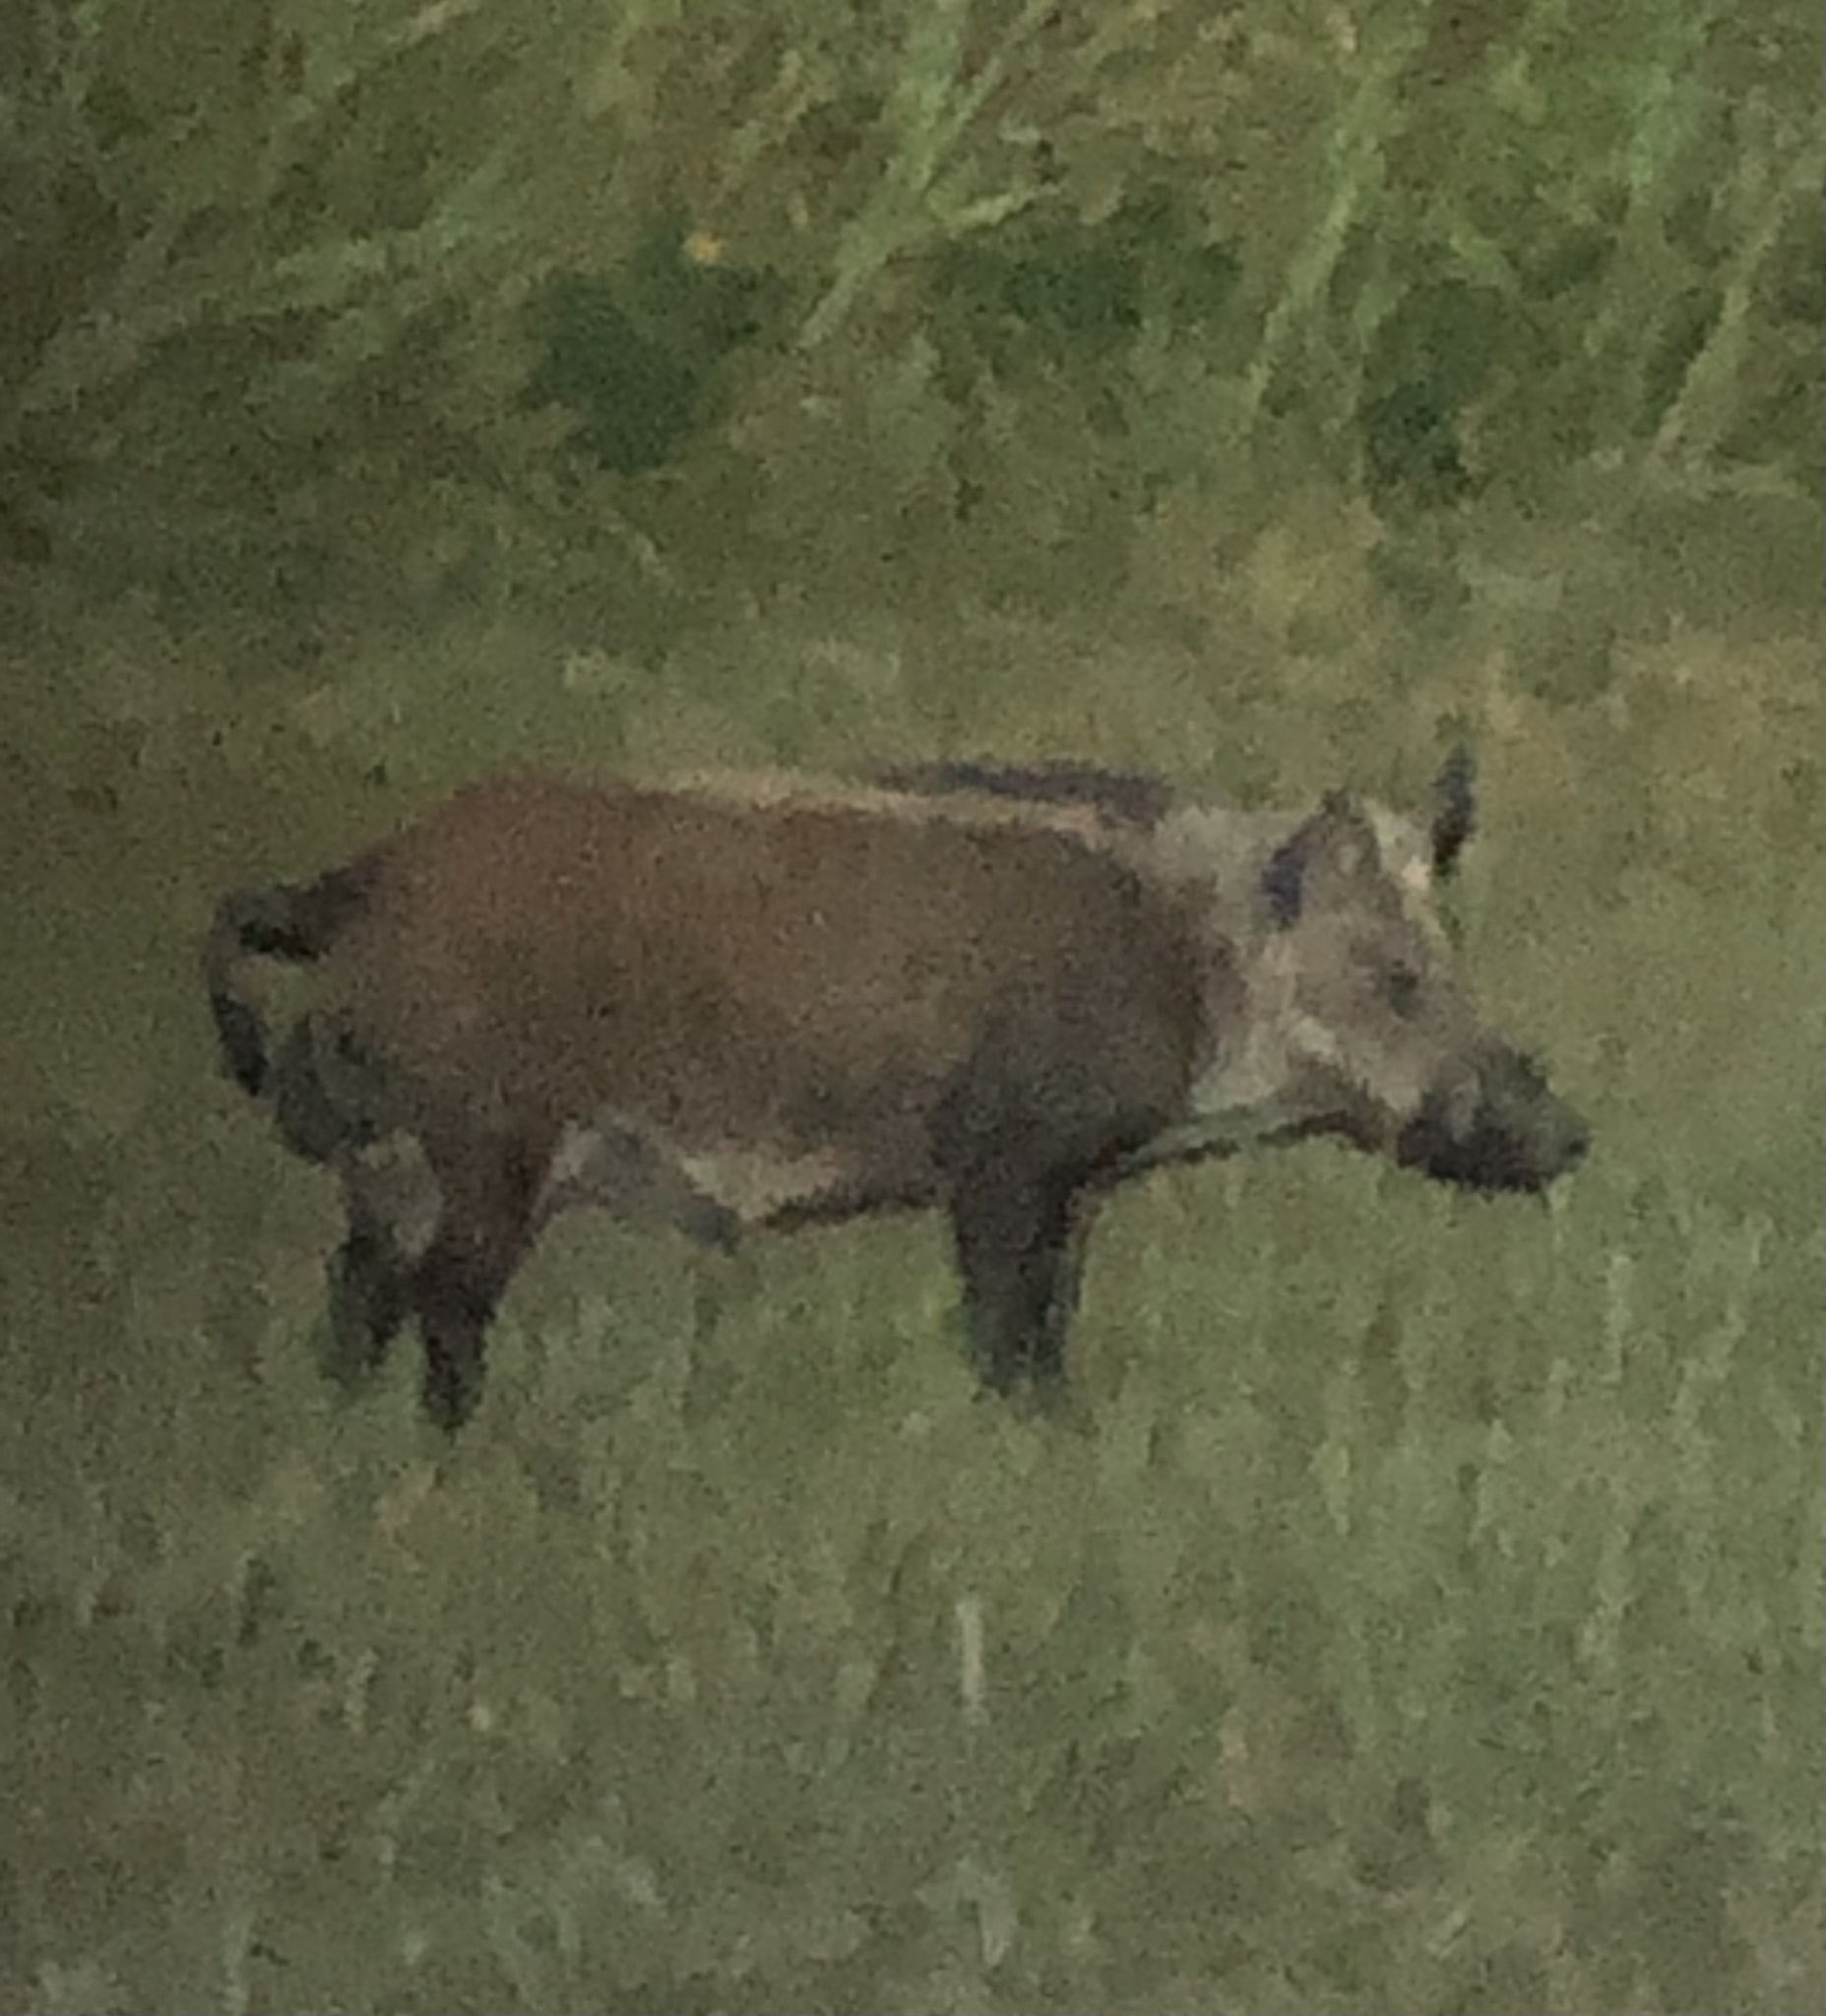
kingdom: Animalia
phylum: Chordata
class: Mammalia
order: Artiodactyla
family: Suidae
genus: Sus
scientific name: Sus scrofa
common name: Wild boar
